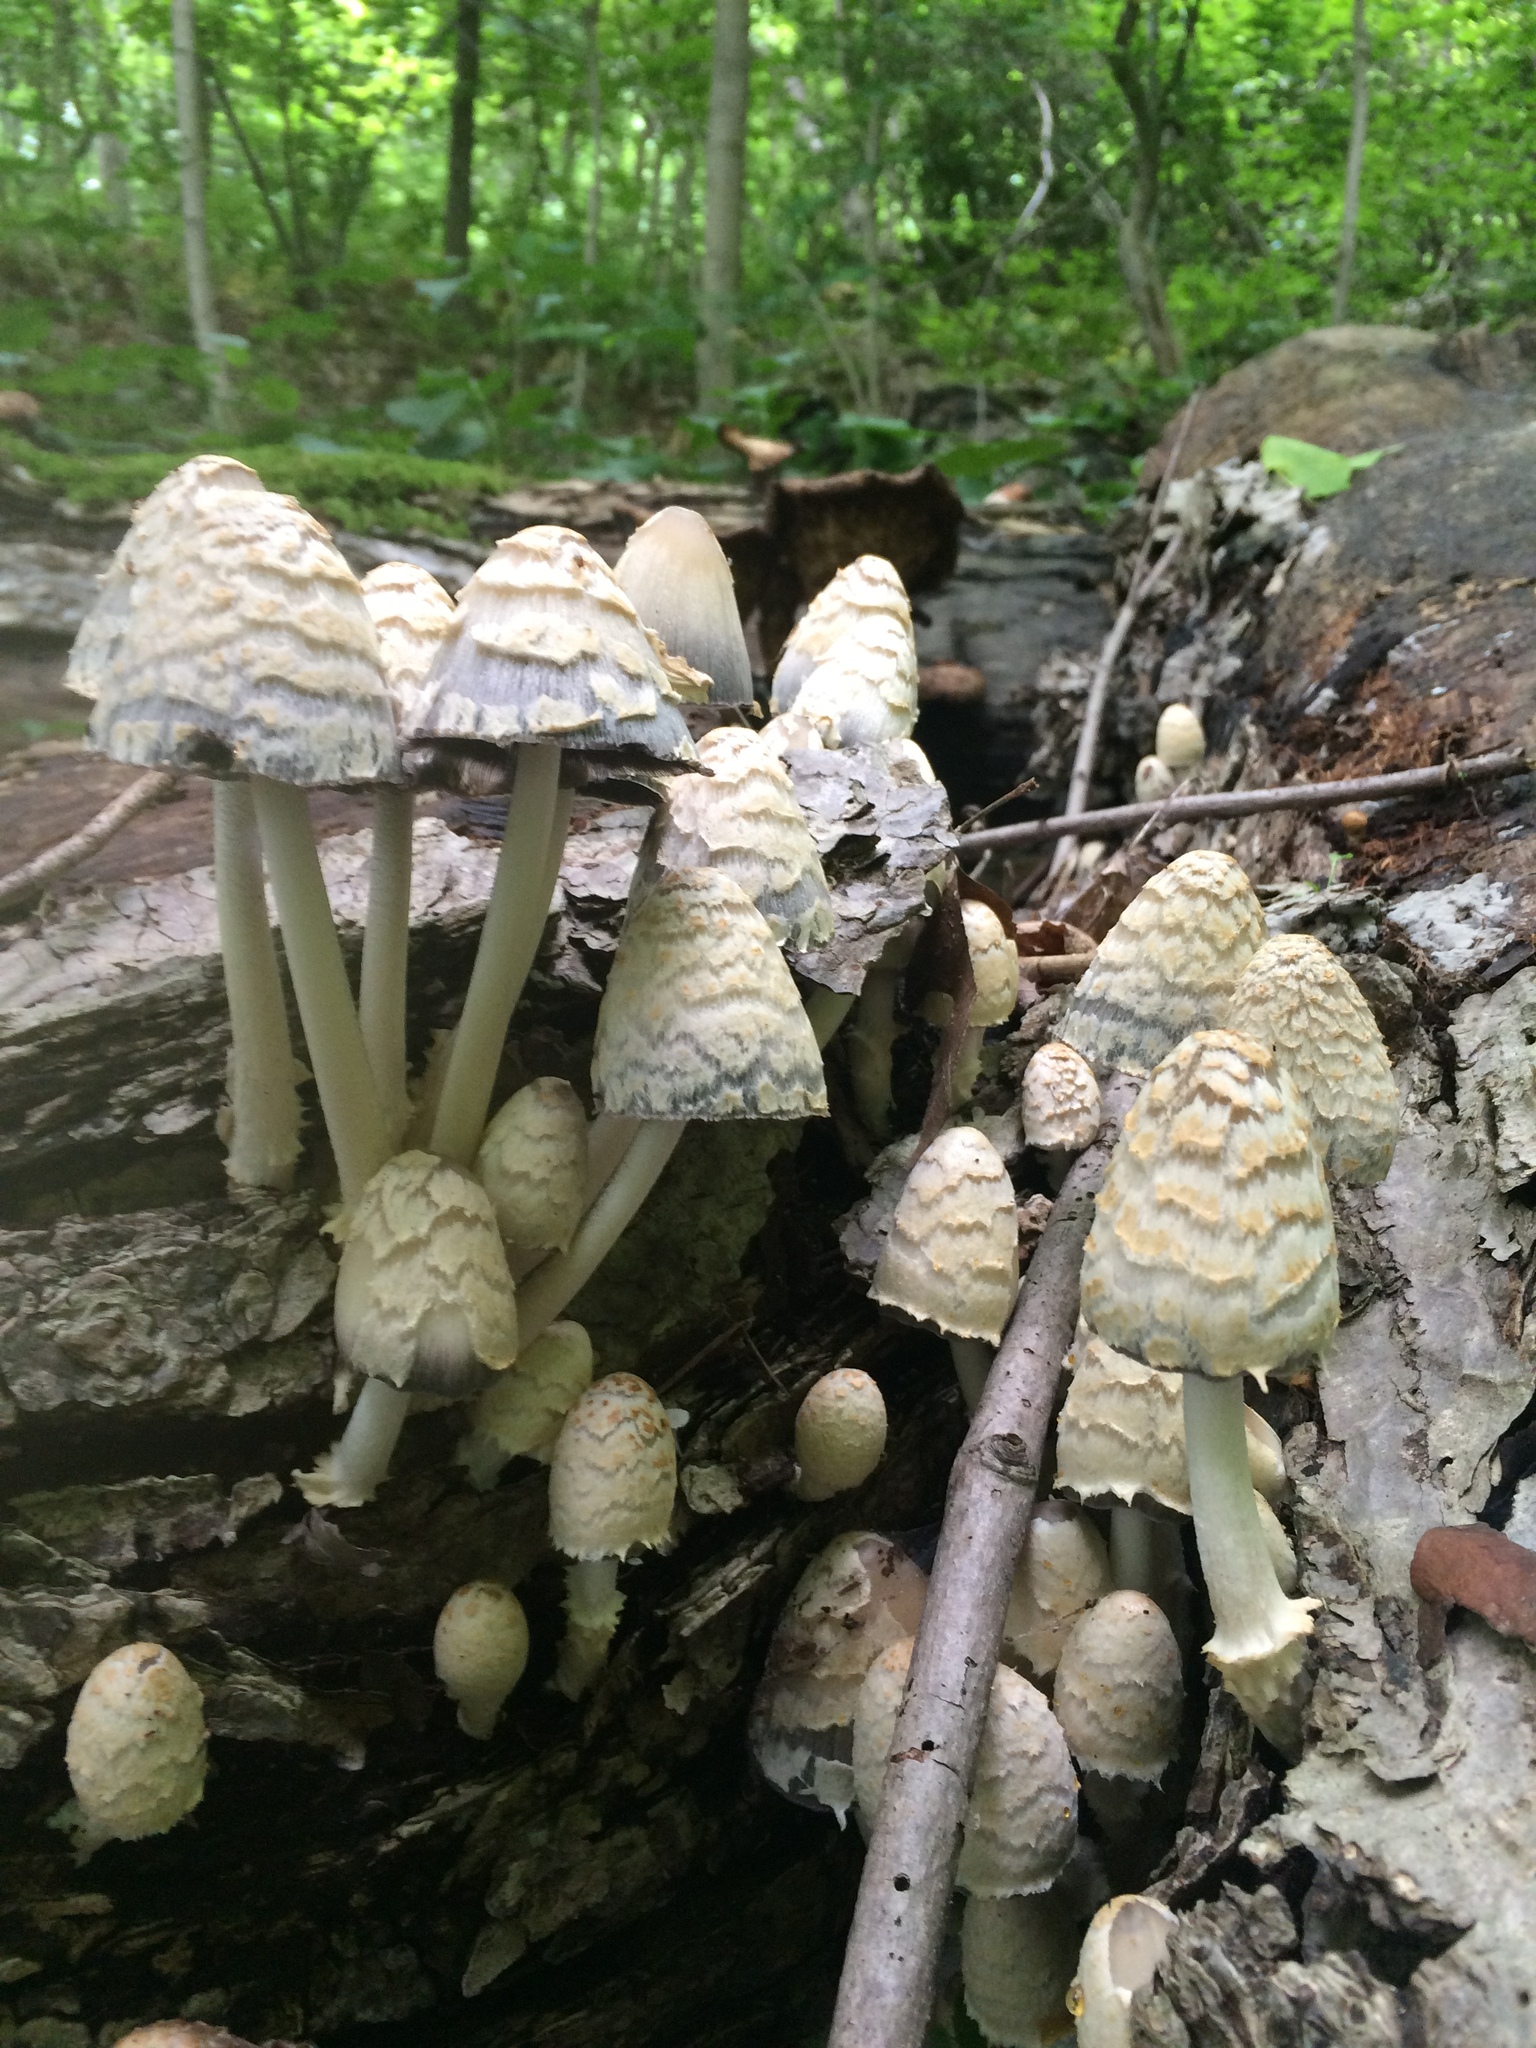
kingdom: Fungi
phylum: Basidiomycota
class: Agaricomycetes
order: Agaricales
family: Psathyrellaceae
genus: Coprinopsis
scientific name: Coprinopsis variegata
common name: Scaly ink cap
